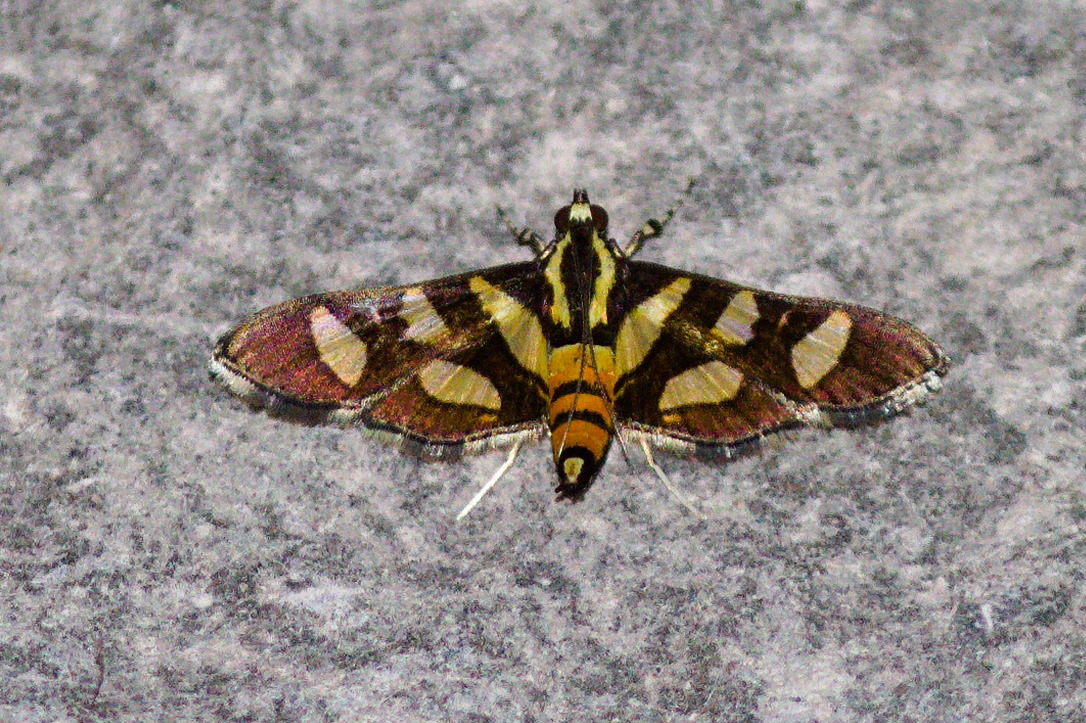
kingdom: Animalia
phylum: Arthropoda
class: Insecta
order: Lepidoptera
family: Crambidae
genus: Syngamia
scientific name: Syngamia florella
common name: Orange-spotted flower moth
